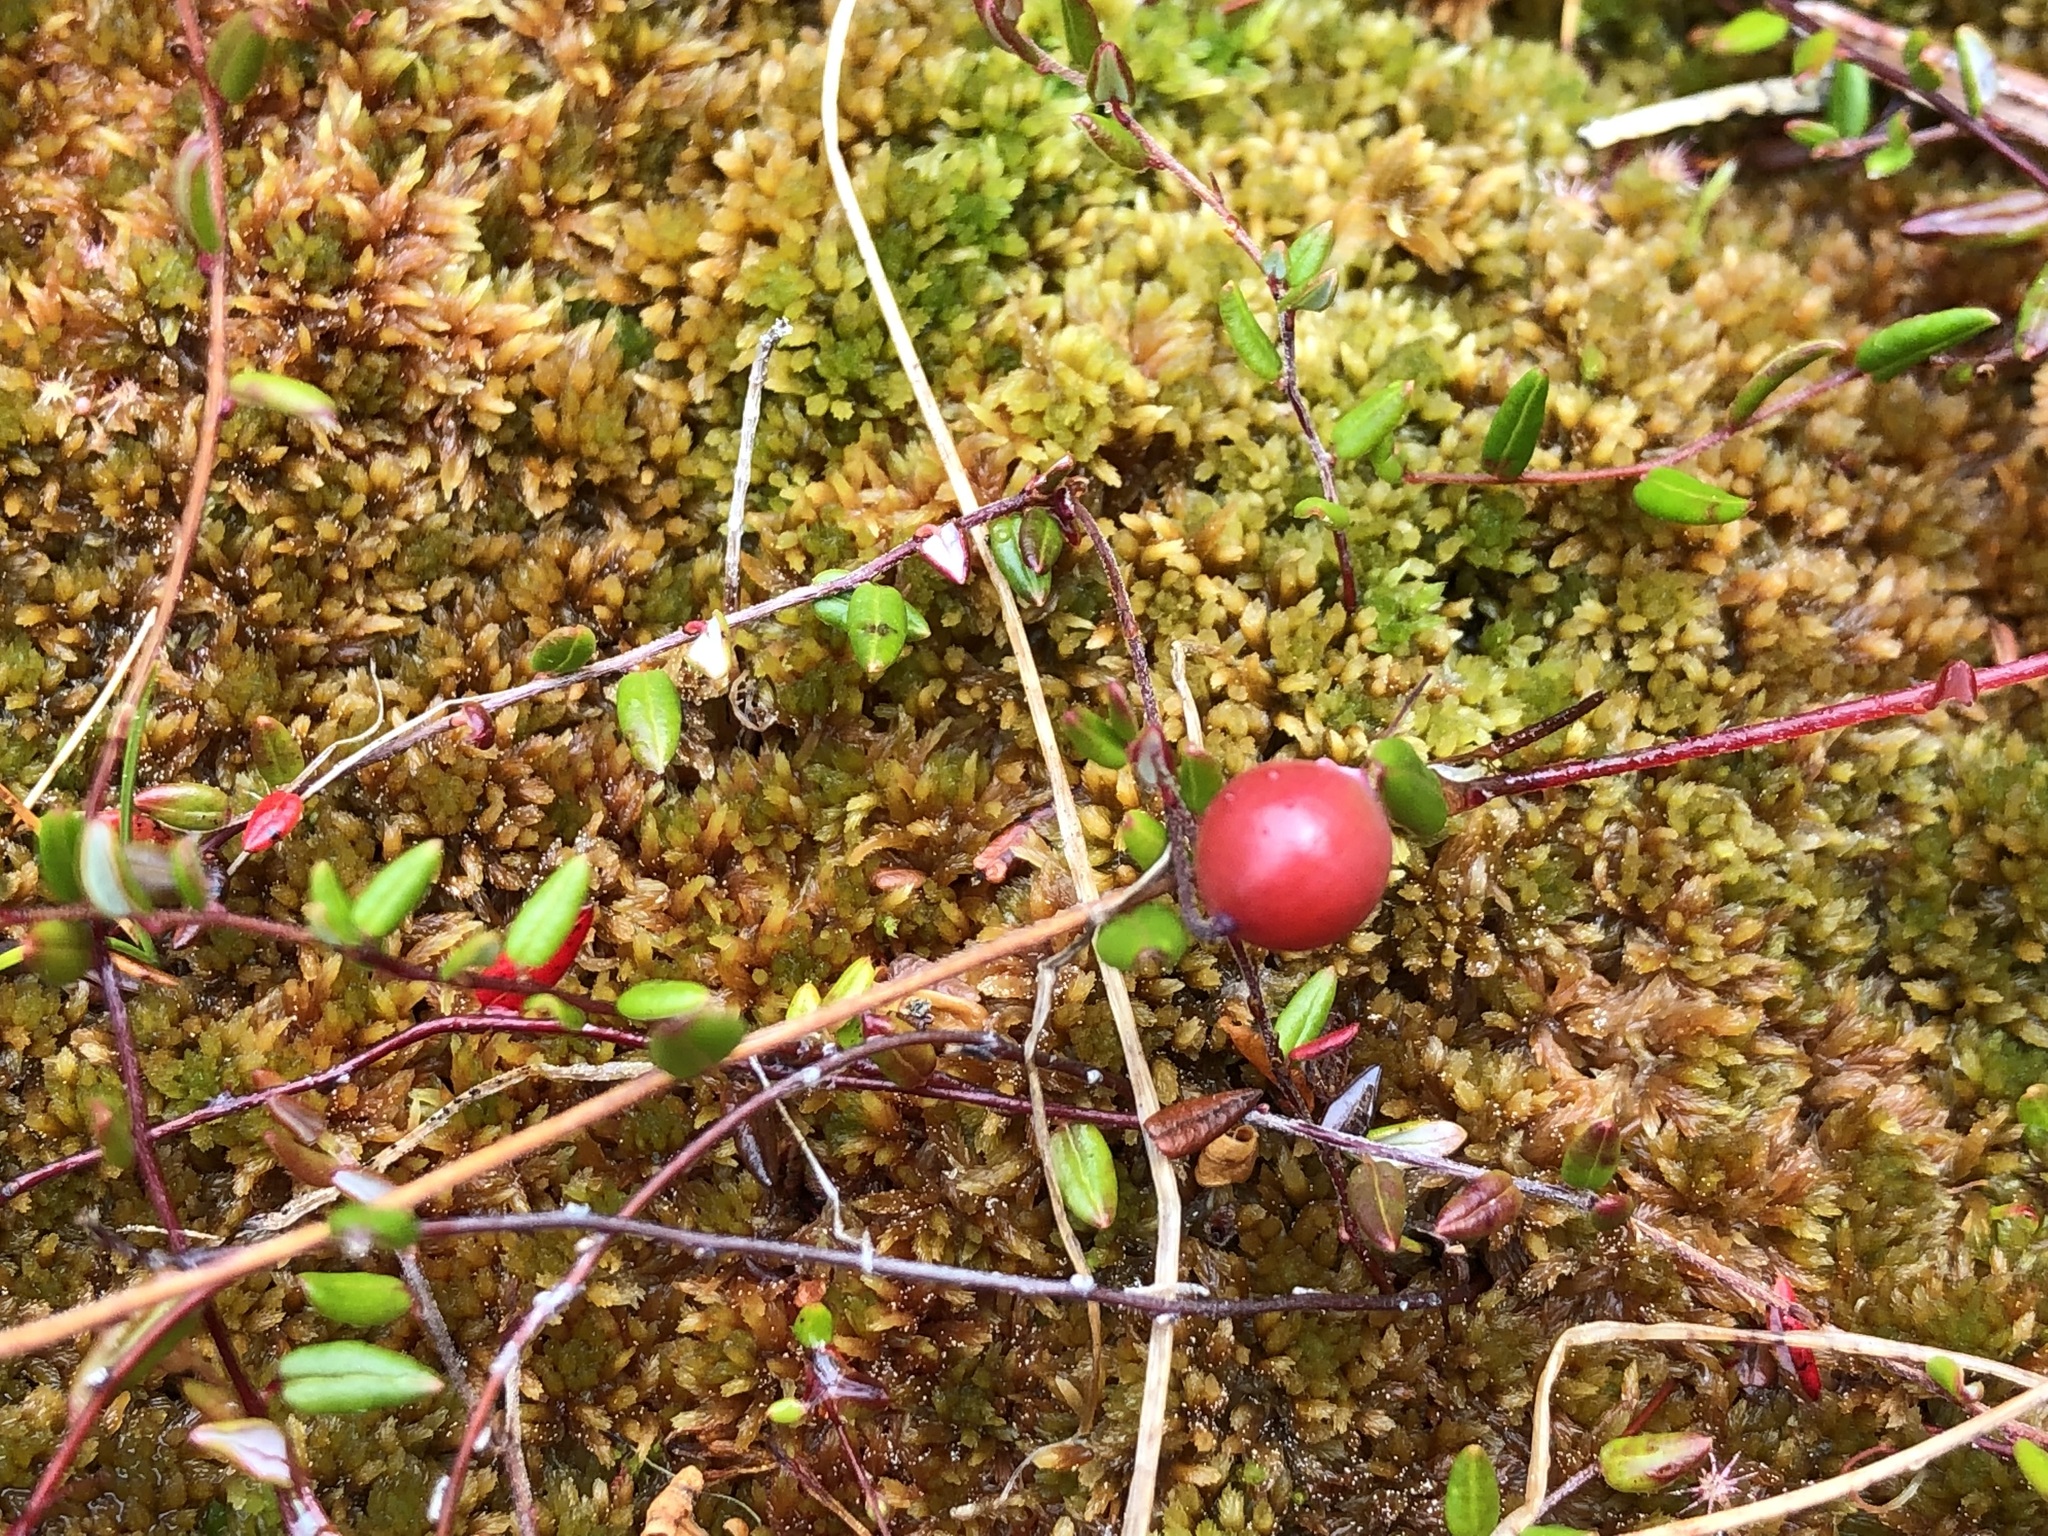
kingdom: Plantae
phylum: Tracheophyta
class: Magnoliopsida
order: Ericales
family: Ericaceae
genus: Vaccinium
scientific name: Vaccinium oxycoccos
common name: Cranberry
